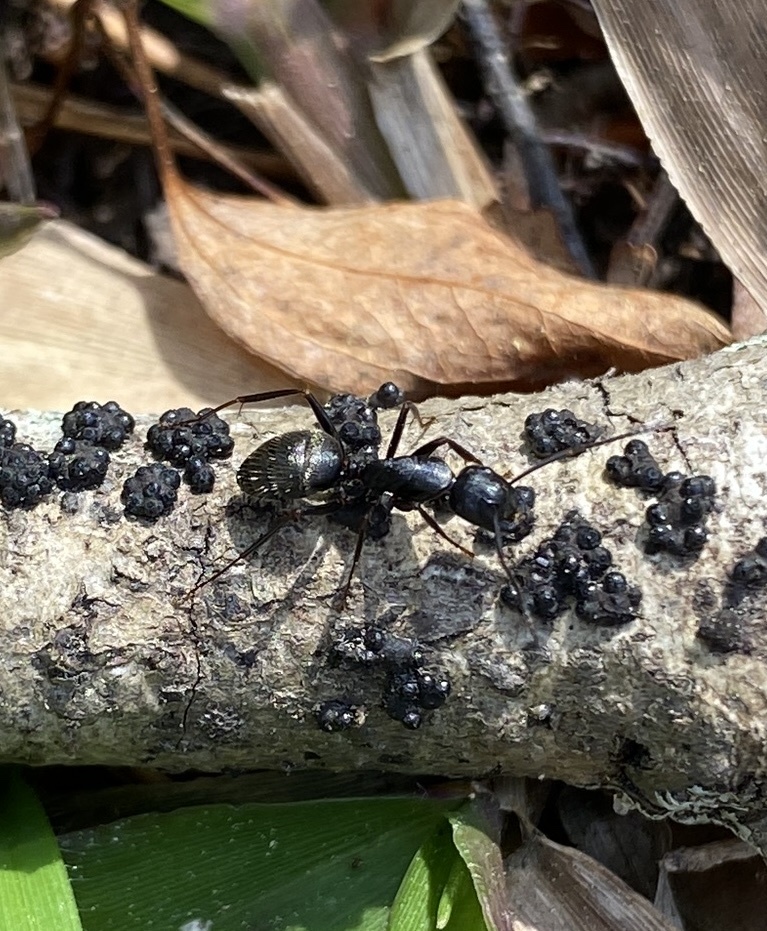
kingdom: Animalia
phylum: Arthropoda
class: Insecta
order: Hymenoptera
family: Formicidae
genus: Camponotus
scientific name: Camponotus pennsylvanicus
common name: Black carpenter ant
